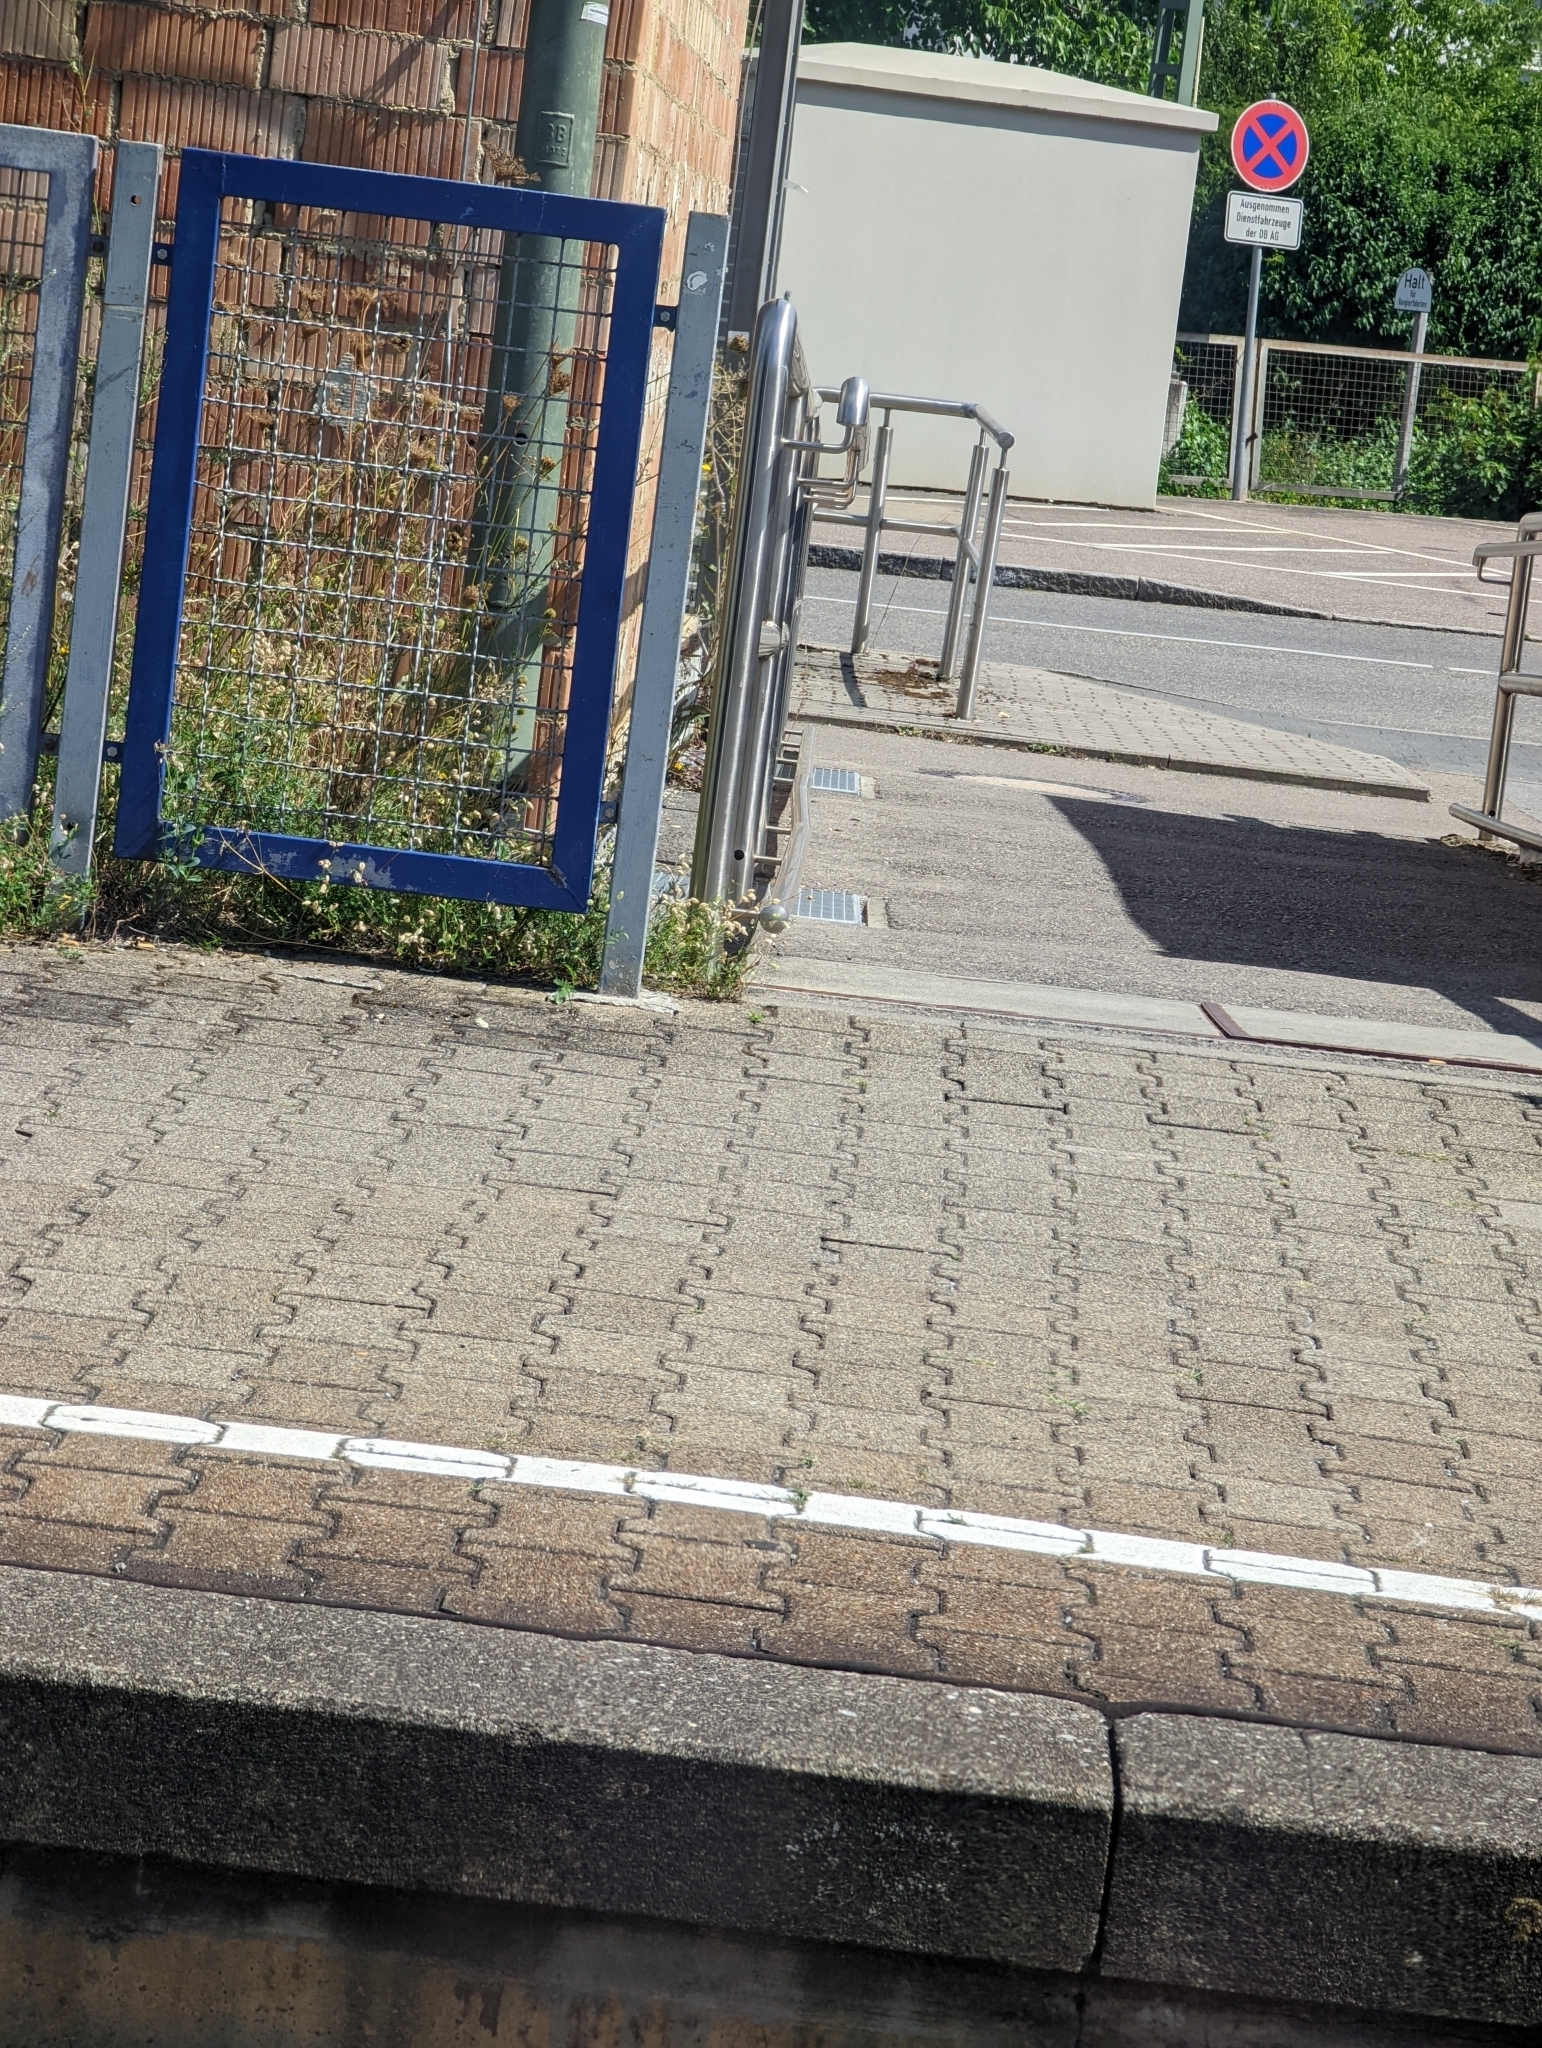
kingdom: Plantae
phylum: Tracheophyta
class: Magnoliopsida
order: Caryophyllales
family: Caryophyllaceae
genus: Silene
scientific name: Silene vulgaris
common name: Bladder campion
